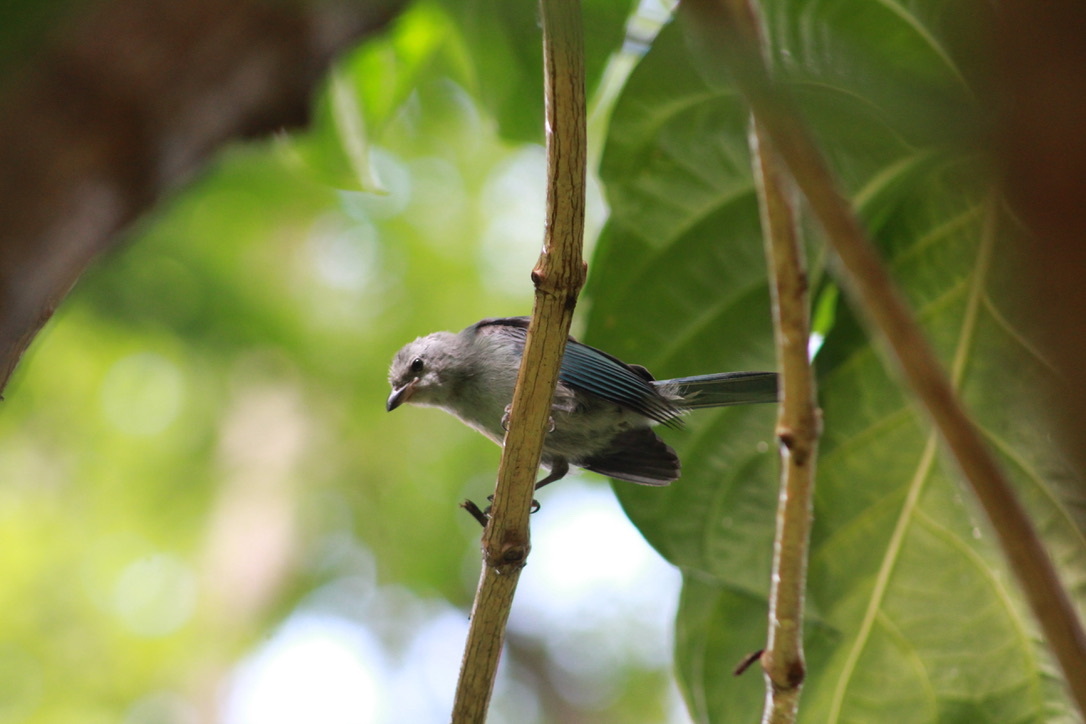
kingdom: Animalia
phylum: Chordata
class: Aves
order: Passeriformes
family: Thraupidae
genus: Thraupis
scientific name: Thraupis episcopus
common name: Blue-grey tanager
